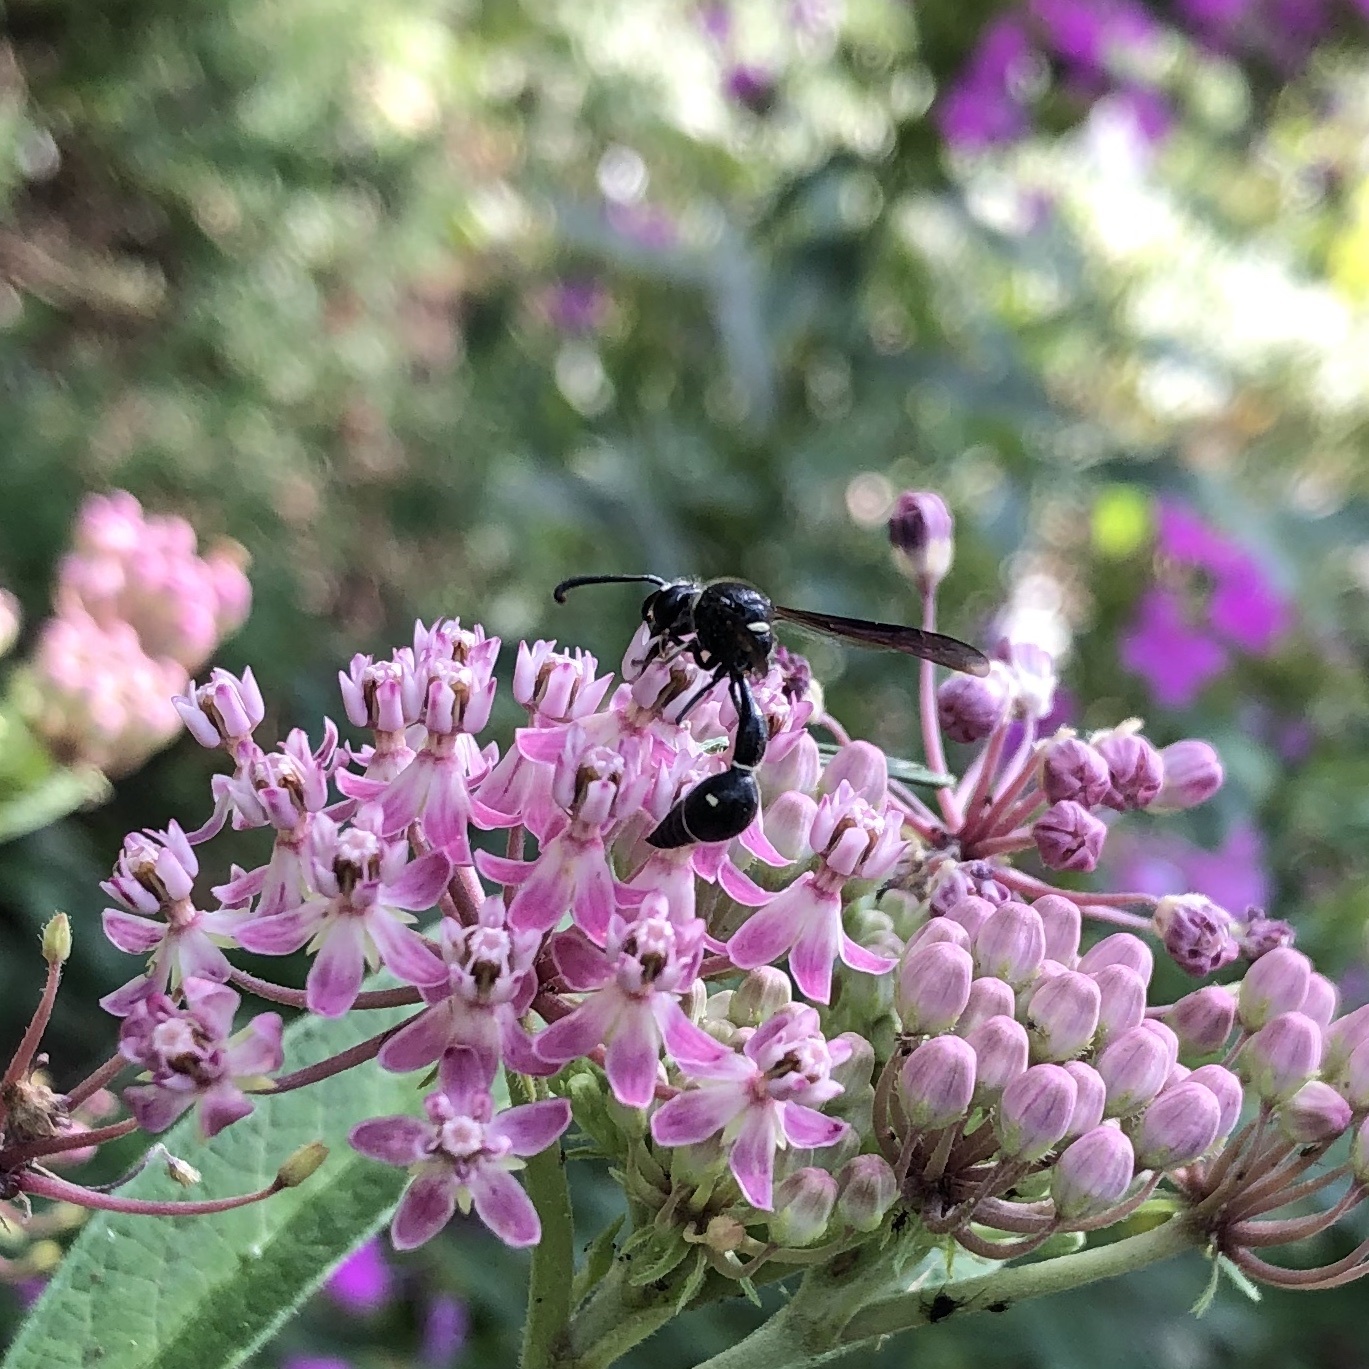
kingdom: Animalia
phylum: Arthropoda
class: Insecta
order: Hymenoptera
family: Vespidae
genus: Eumenes
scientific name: Eumenes fraternus
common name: Fraternal potter wasp
